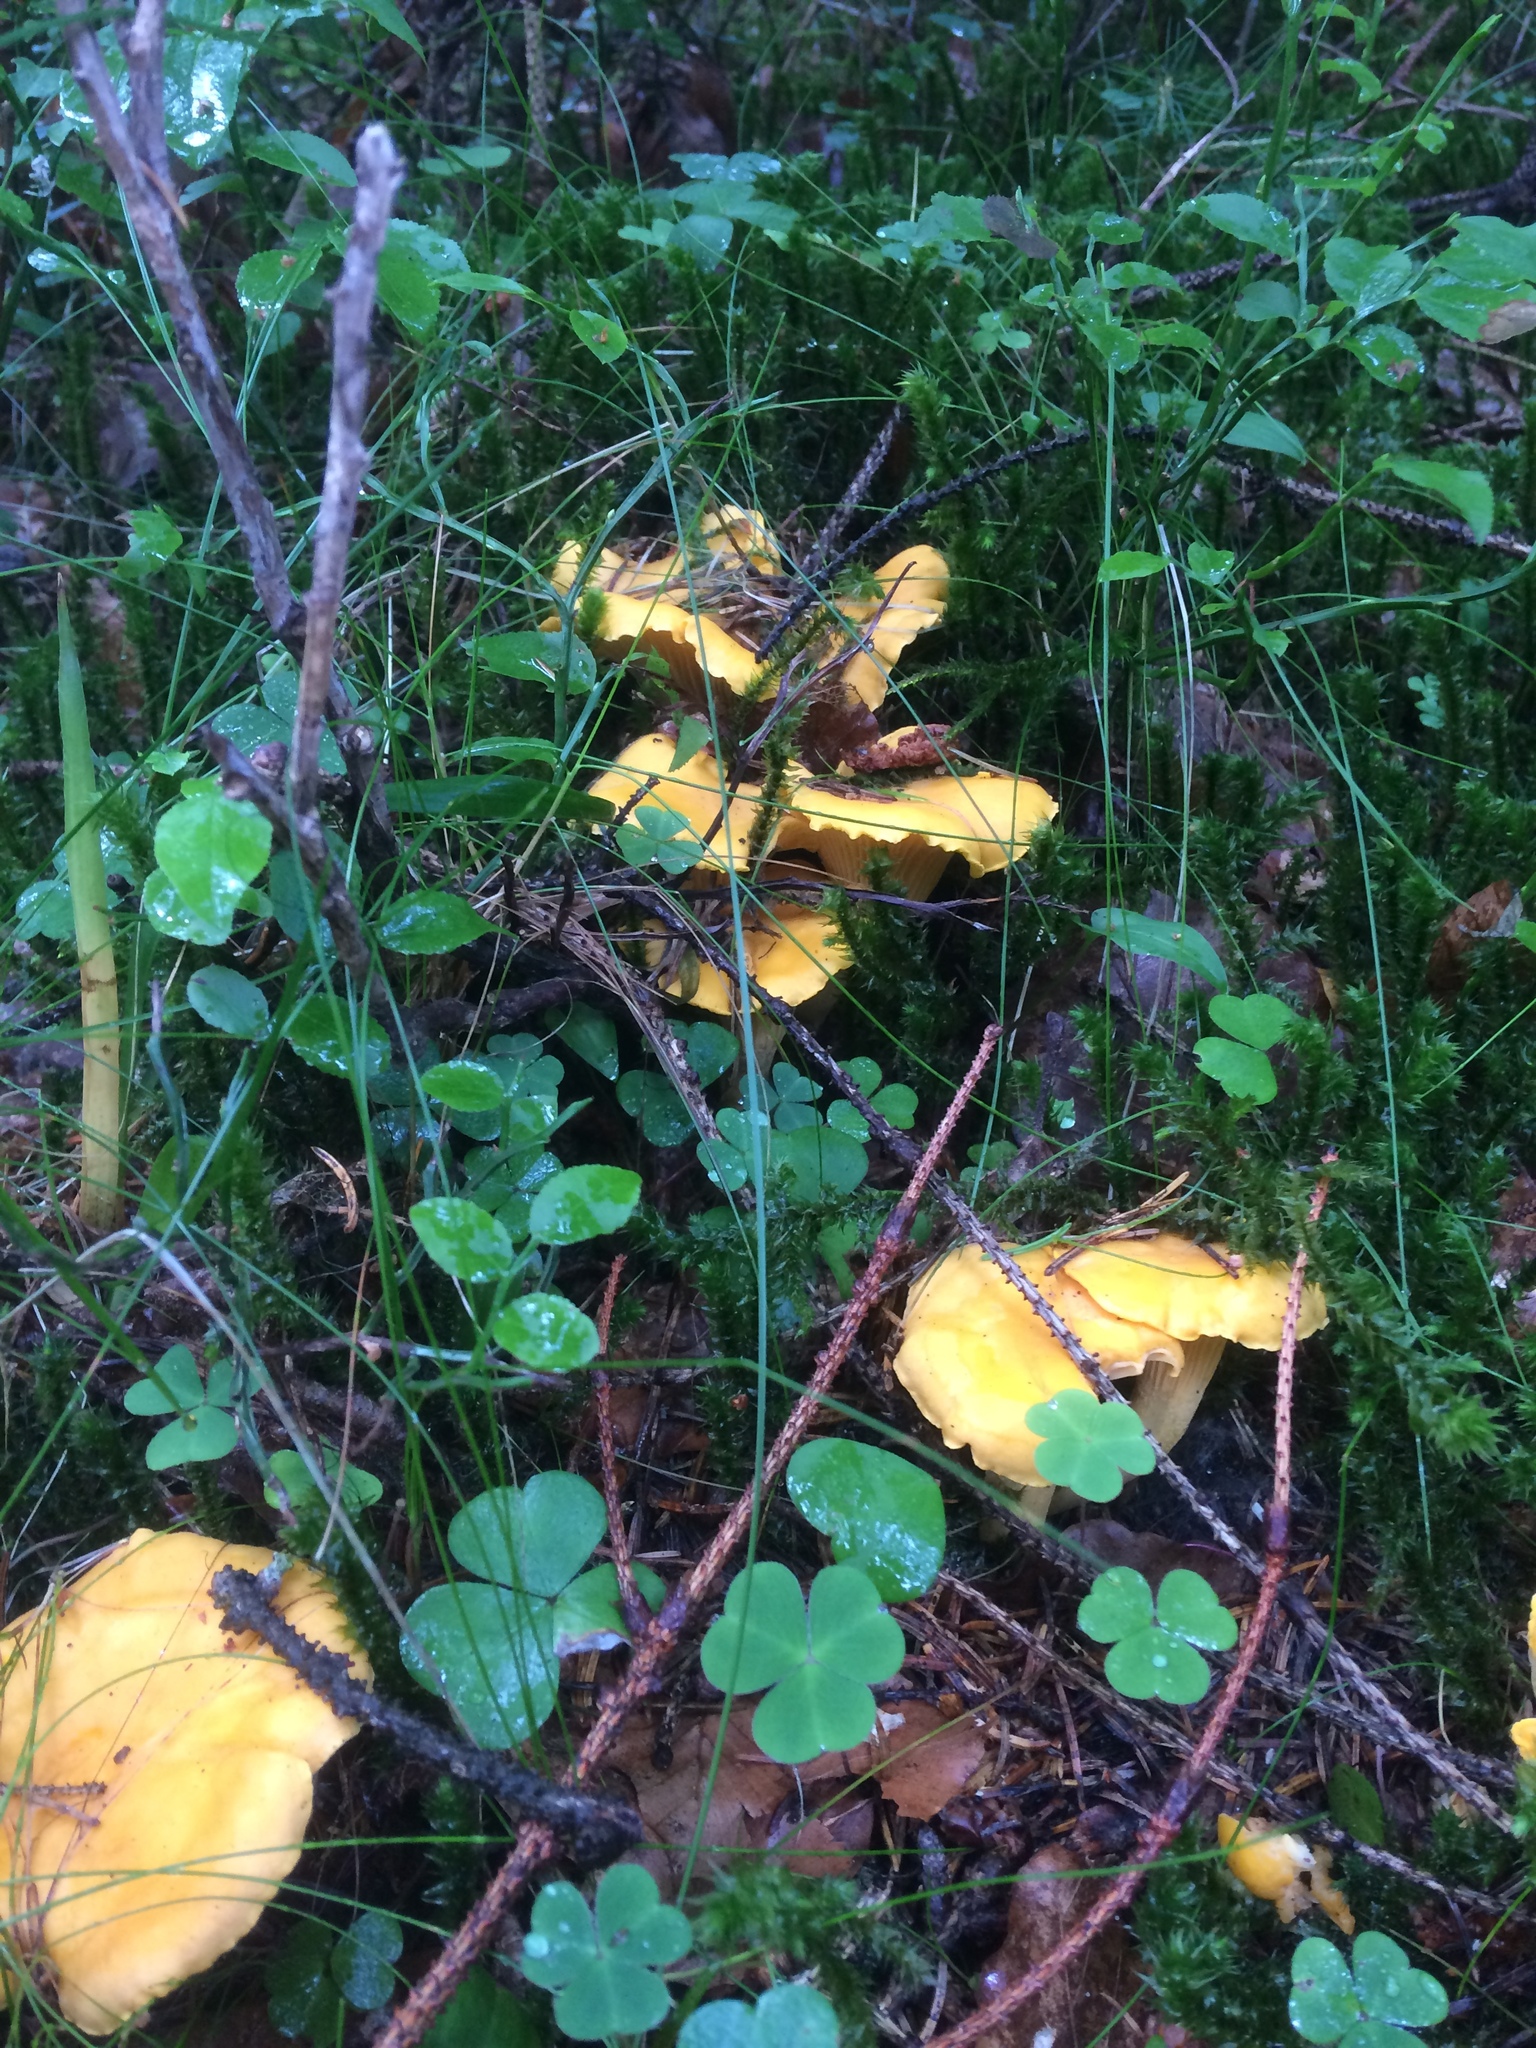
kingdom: Fungi
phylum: Basidiomycota
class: Agaricomycetes
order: Cantharellales
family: Hydnaceae
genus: Cantharellus
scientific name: Cantharellus cibarius
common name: Chanterelle
